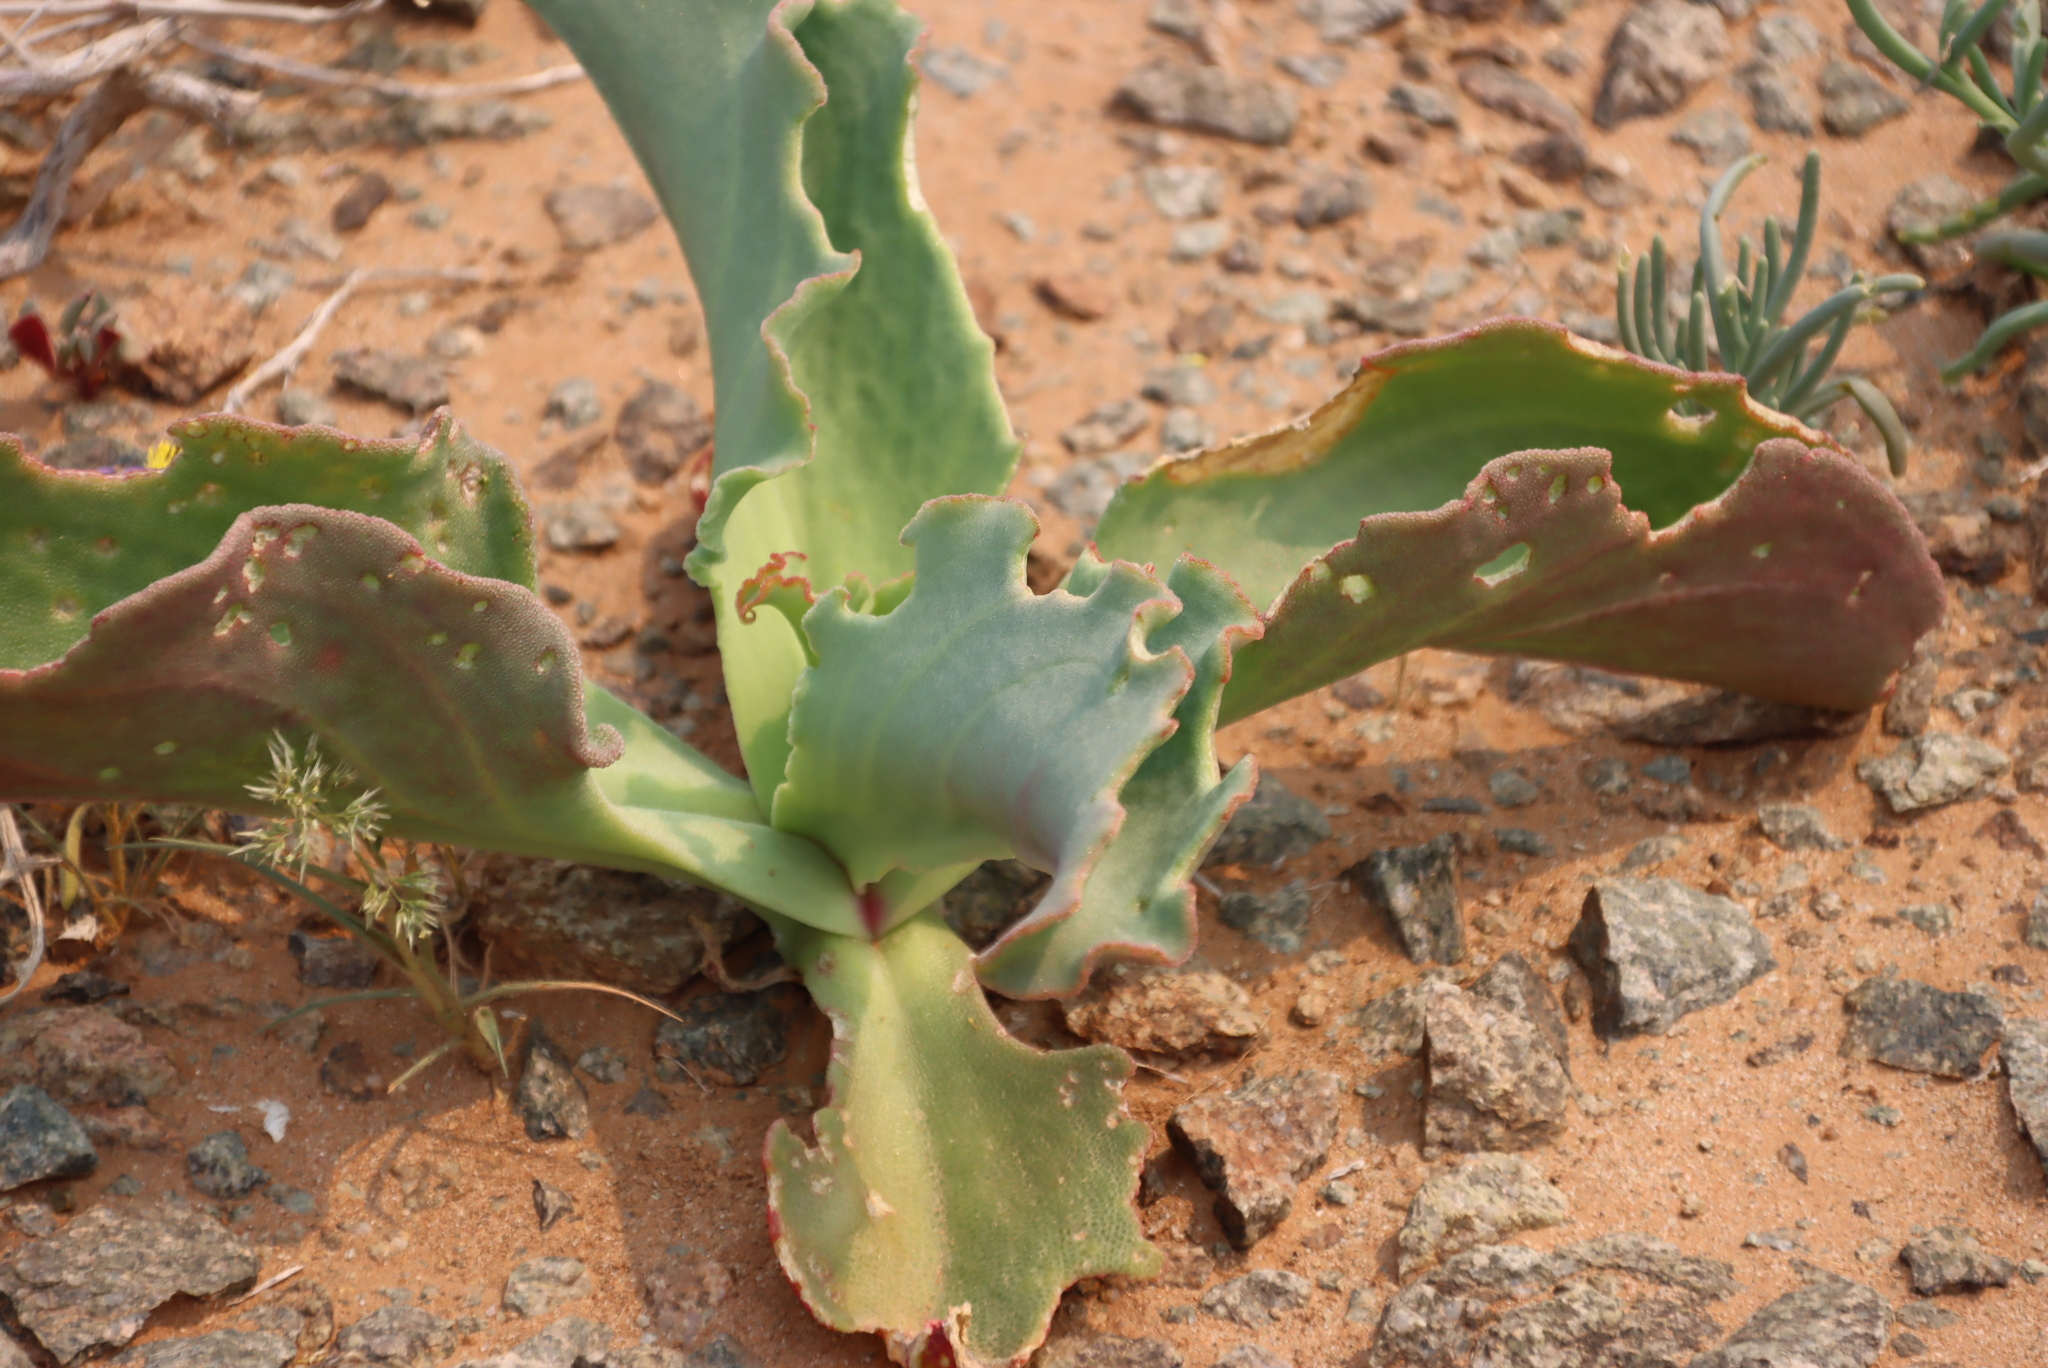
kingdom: Plantae
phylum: Tracheophyta
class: Magnoliopsida
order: Caryophyllales
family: Aizoaceae
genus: Mesembryanthemum
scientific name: Mesembryanthemum barklyi
